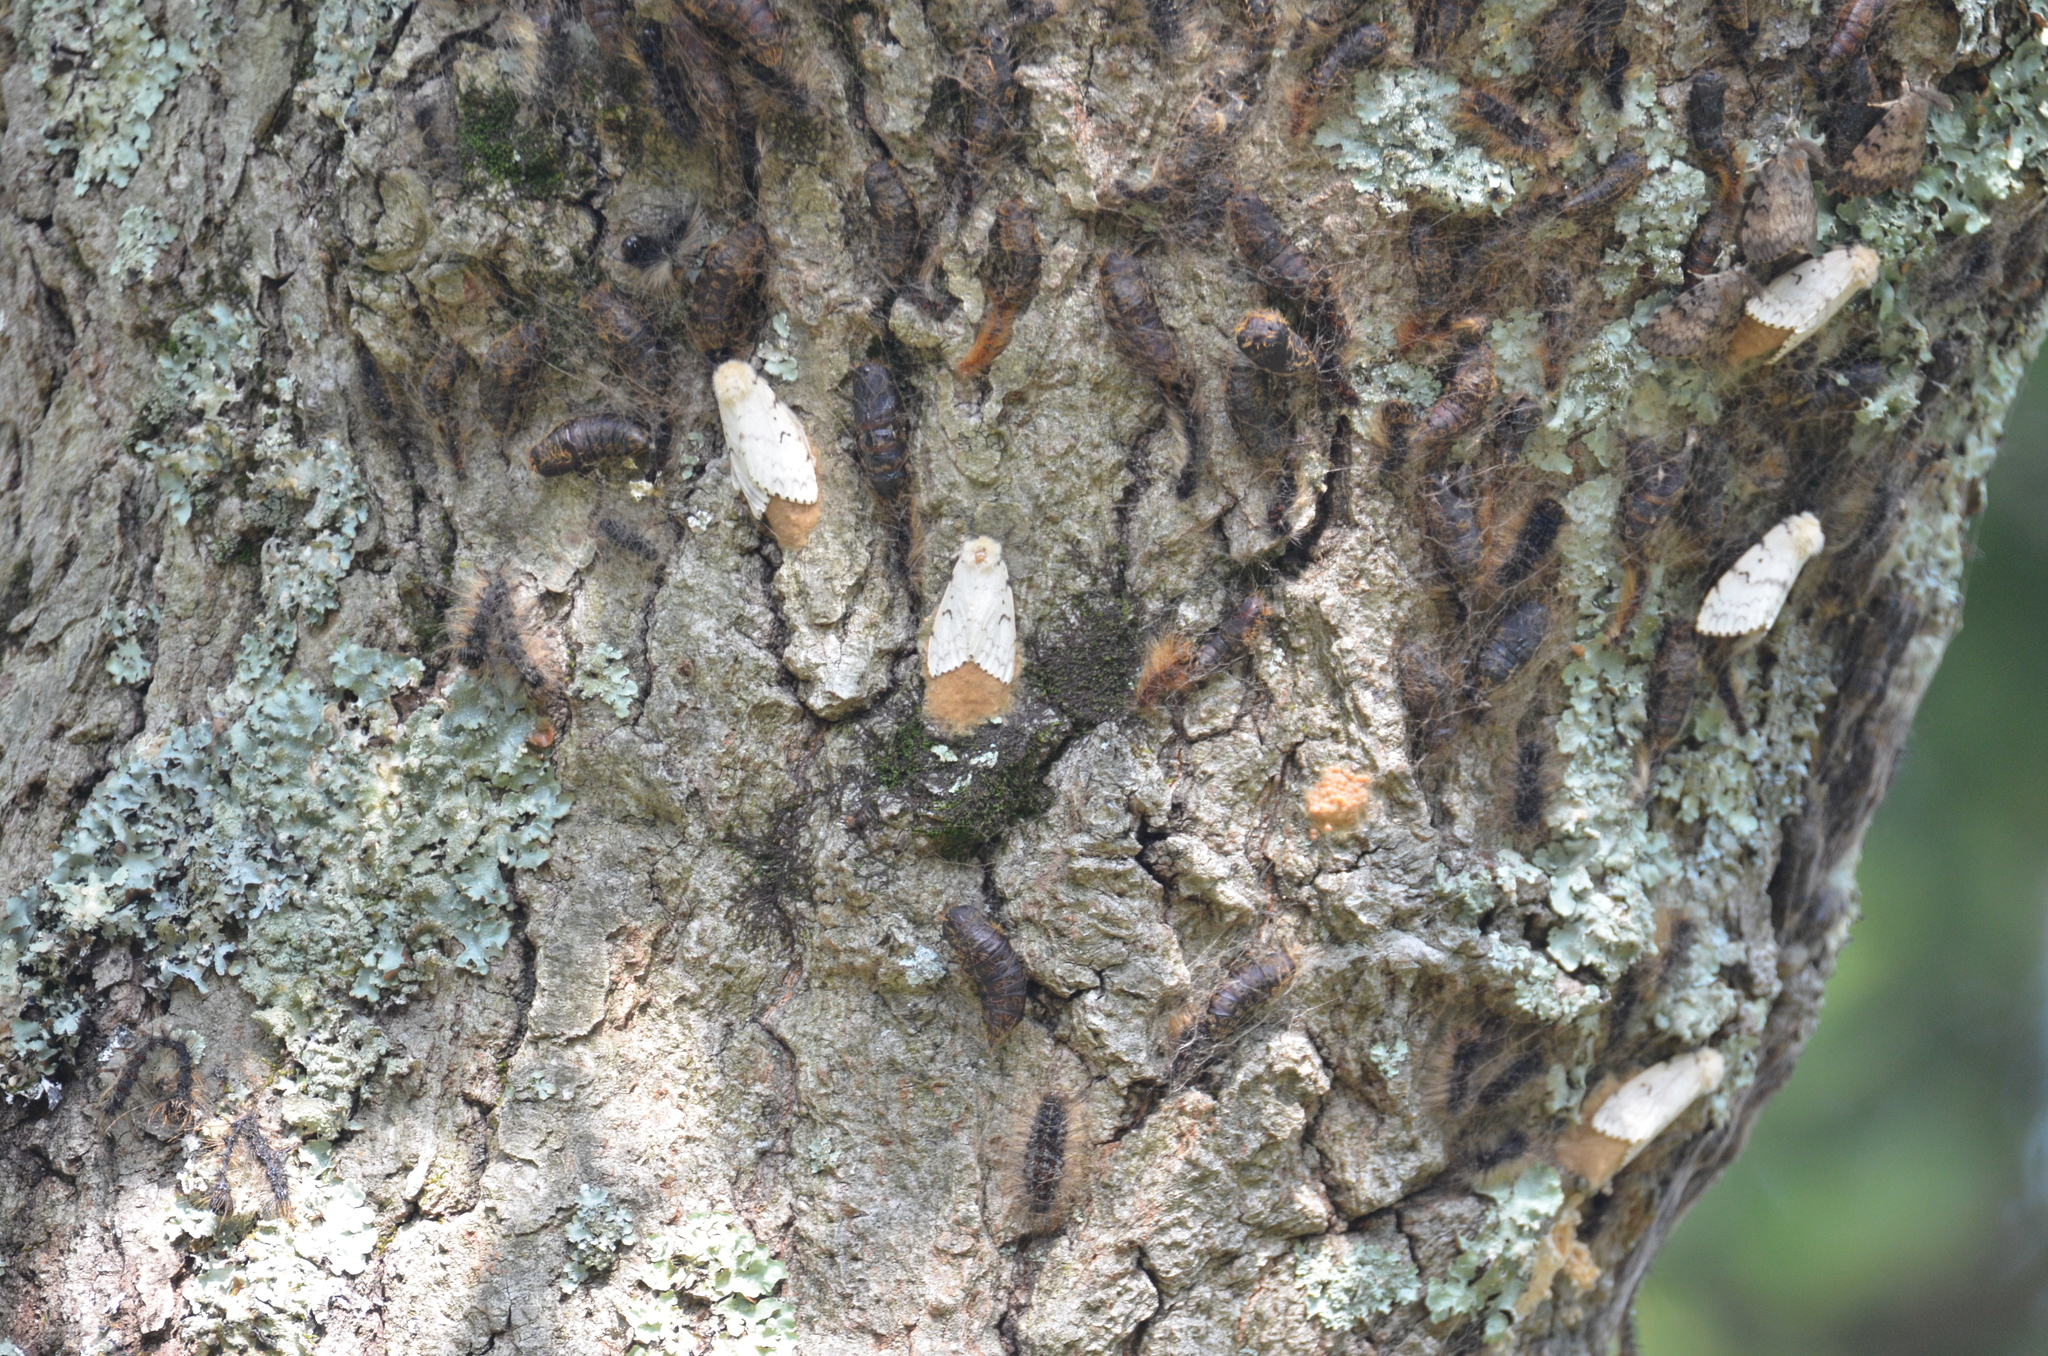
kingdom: Animalia
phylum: Arthropoda
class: Insecta
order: Lepidoptera
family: Erebidae
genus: Lymantria
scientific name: Lymantria dispar
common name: Gypsy moth
